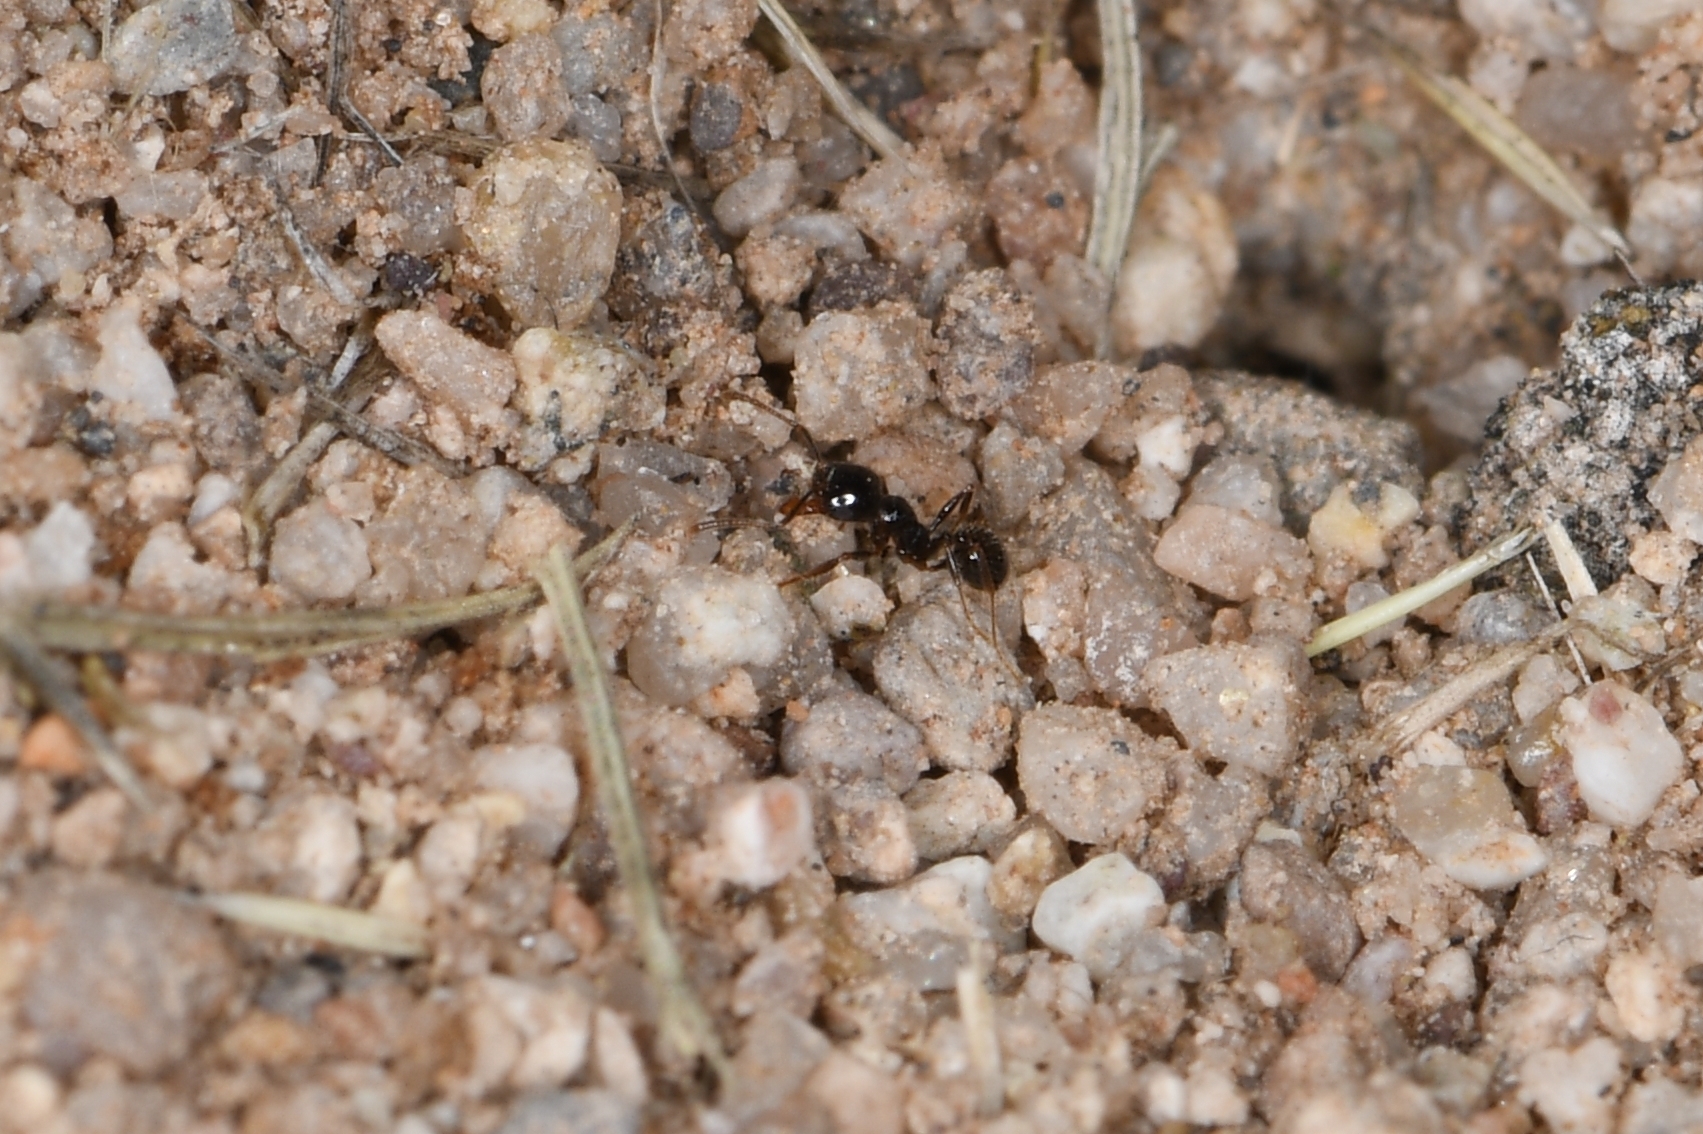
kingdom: Animalia
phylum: Arthropoda
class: Insecta
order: Hymenoptera
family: Formicidae
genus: Pheidole
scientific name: Pheidole xerophila
